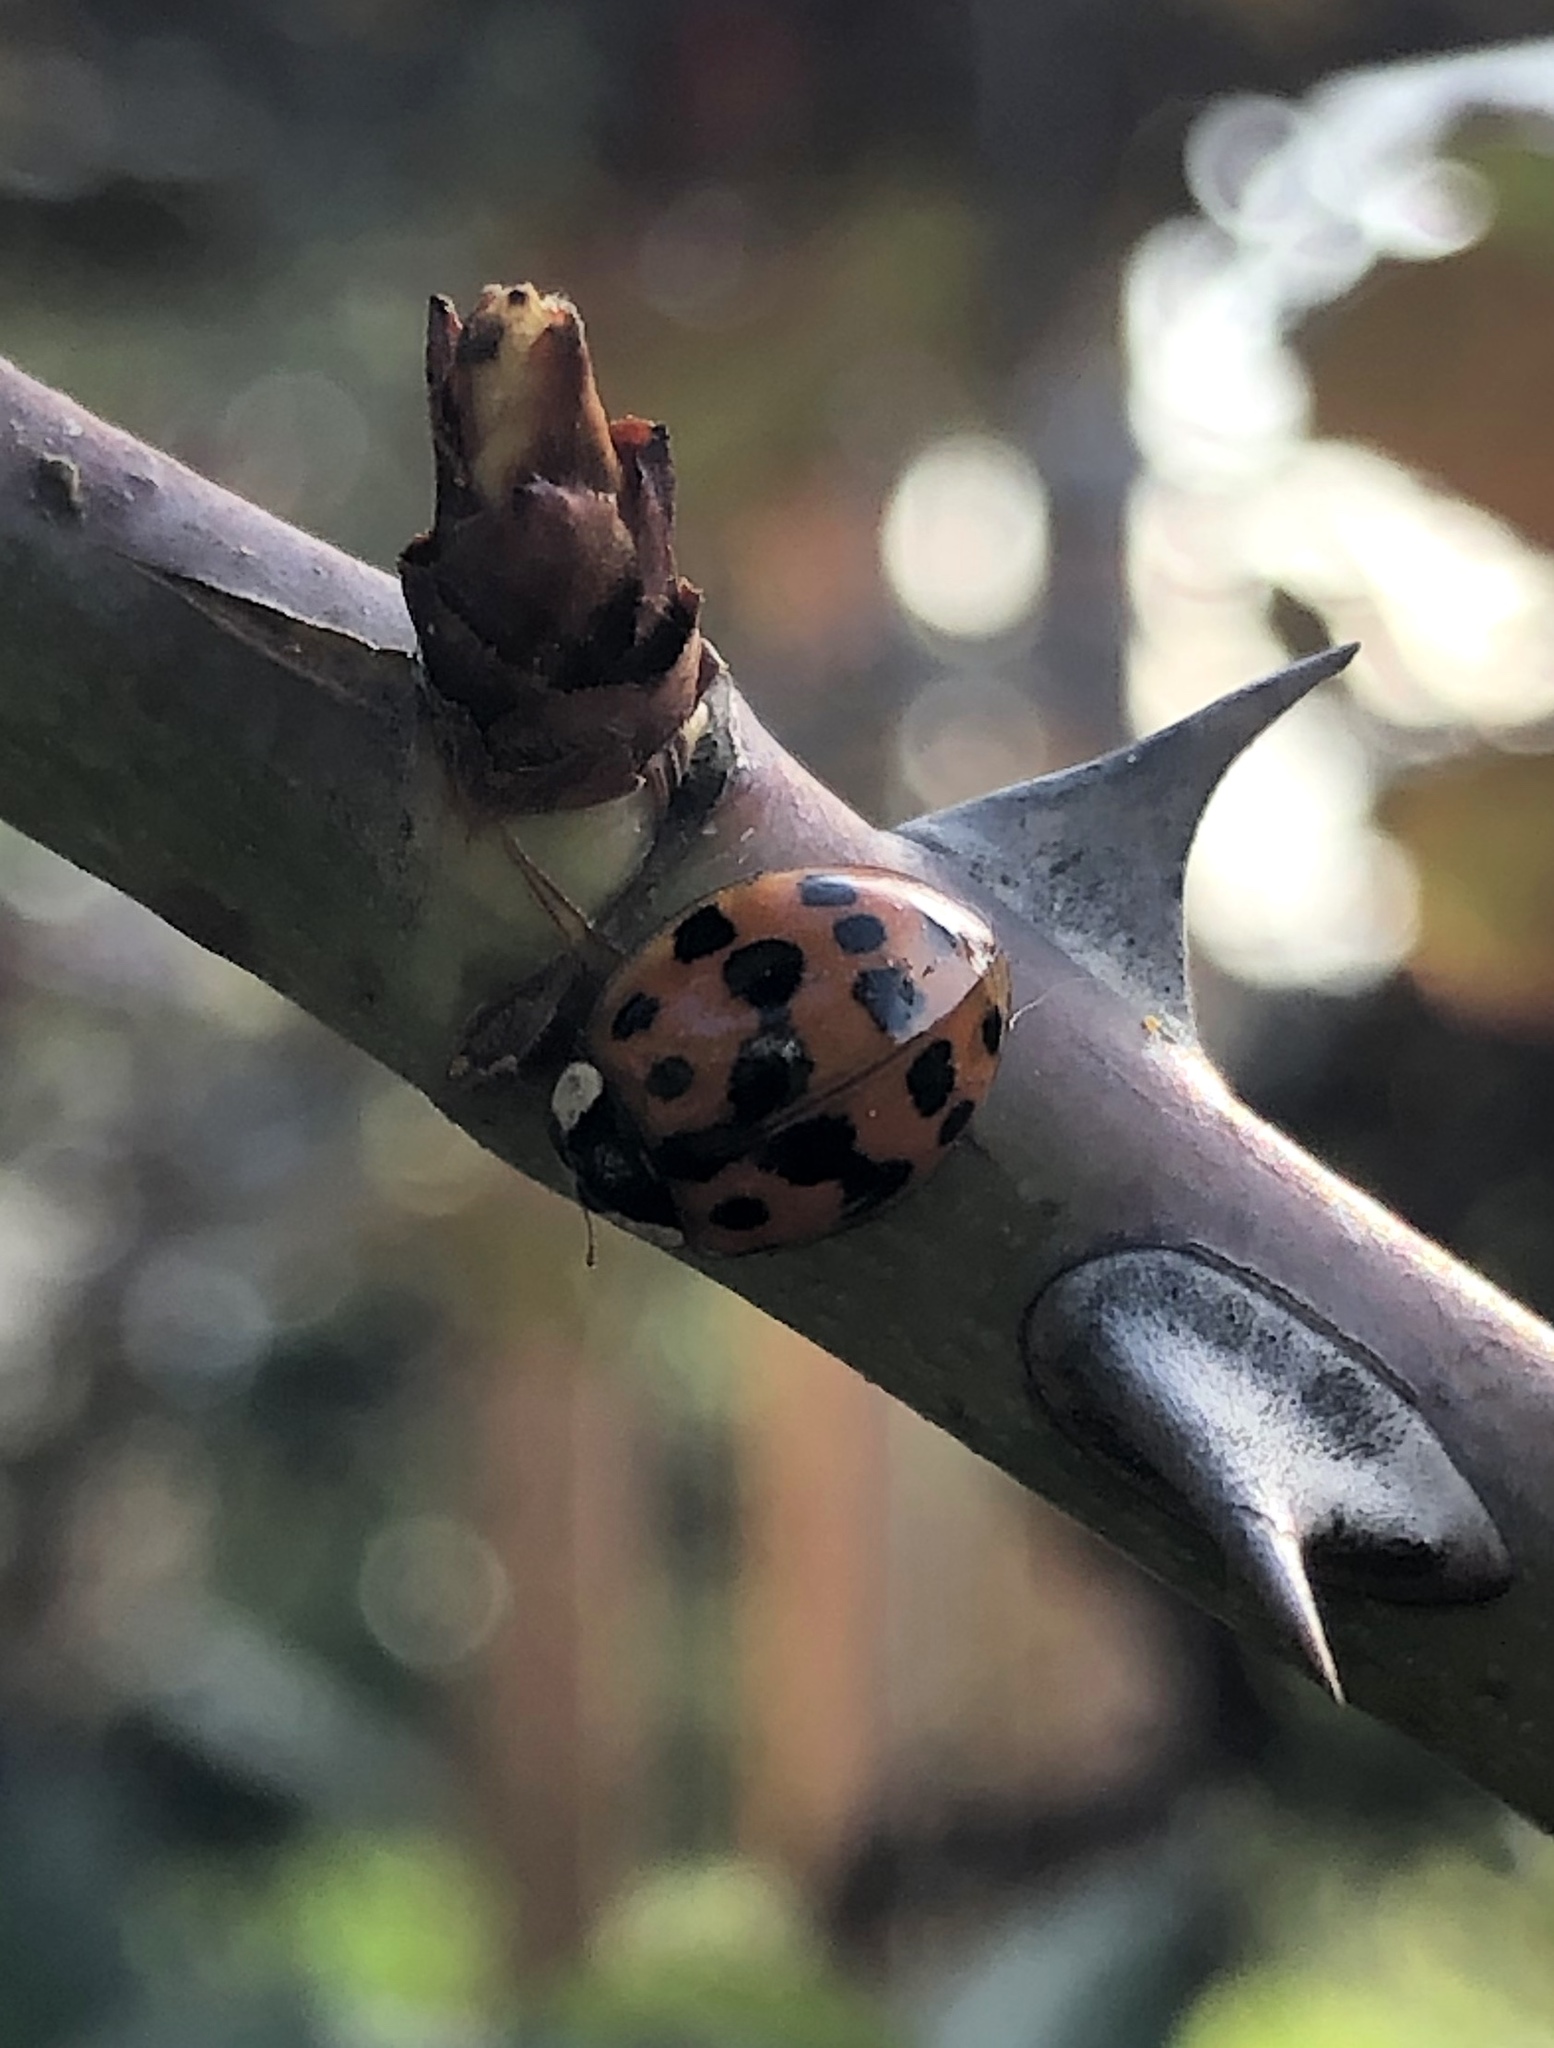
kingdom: Animalia
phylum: Arthropoda
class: Insecta
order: Coleoptera
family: Coccinellidae
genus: Harmonia
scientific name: Harmonia axyridis
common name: Harlequin ladybird
